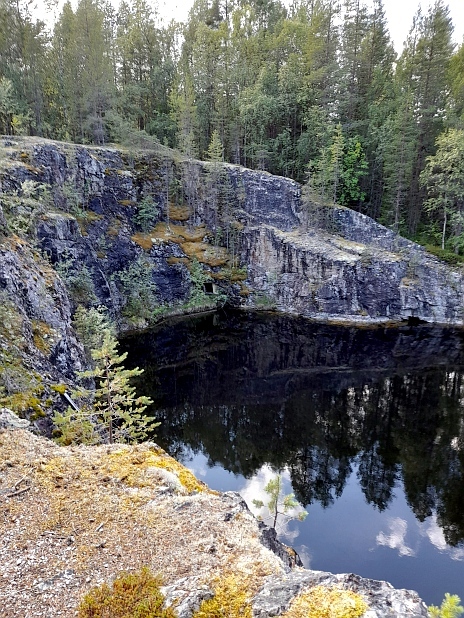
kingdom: Plantae
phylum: Tracheophyta
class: Pinopsida
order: Pinales
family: Pinaceae
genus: Pinus
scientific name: Pinus sylvestris
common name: Scots pine
